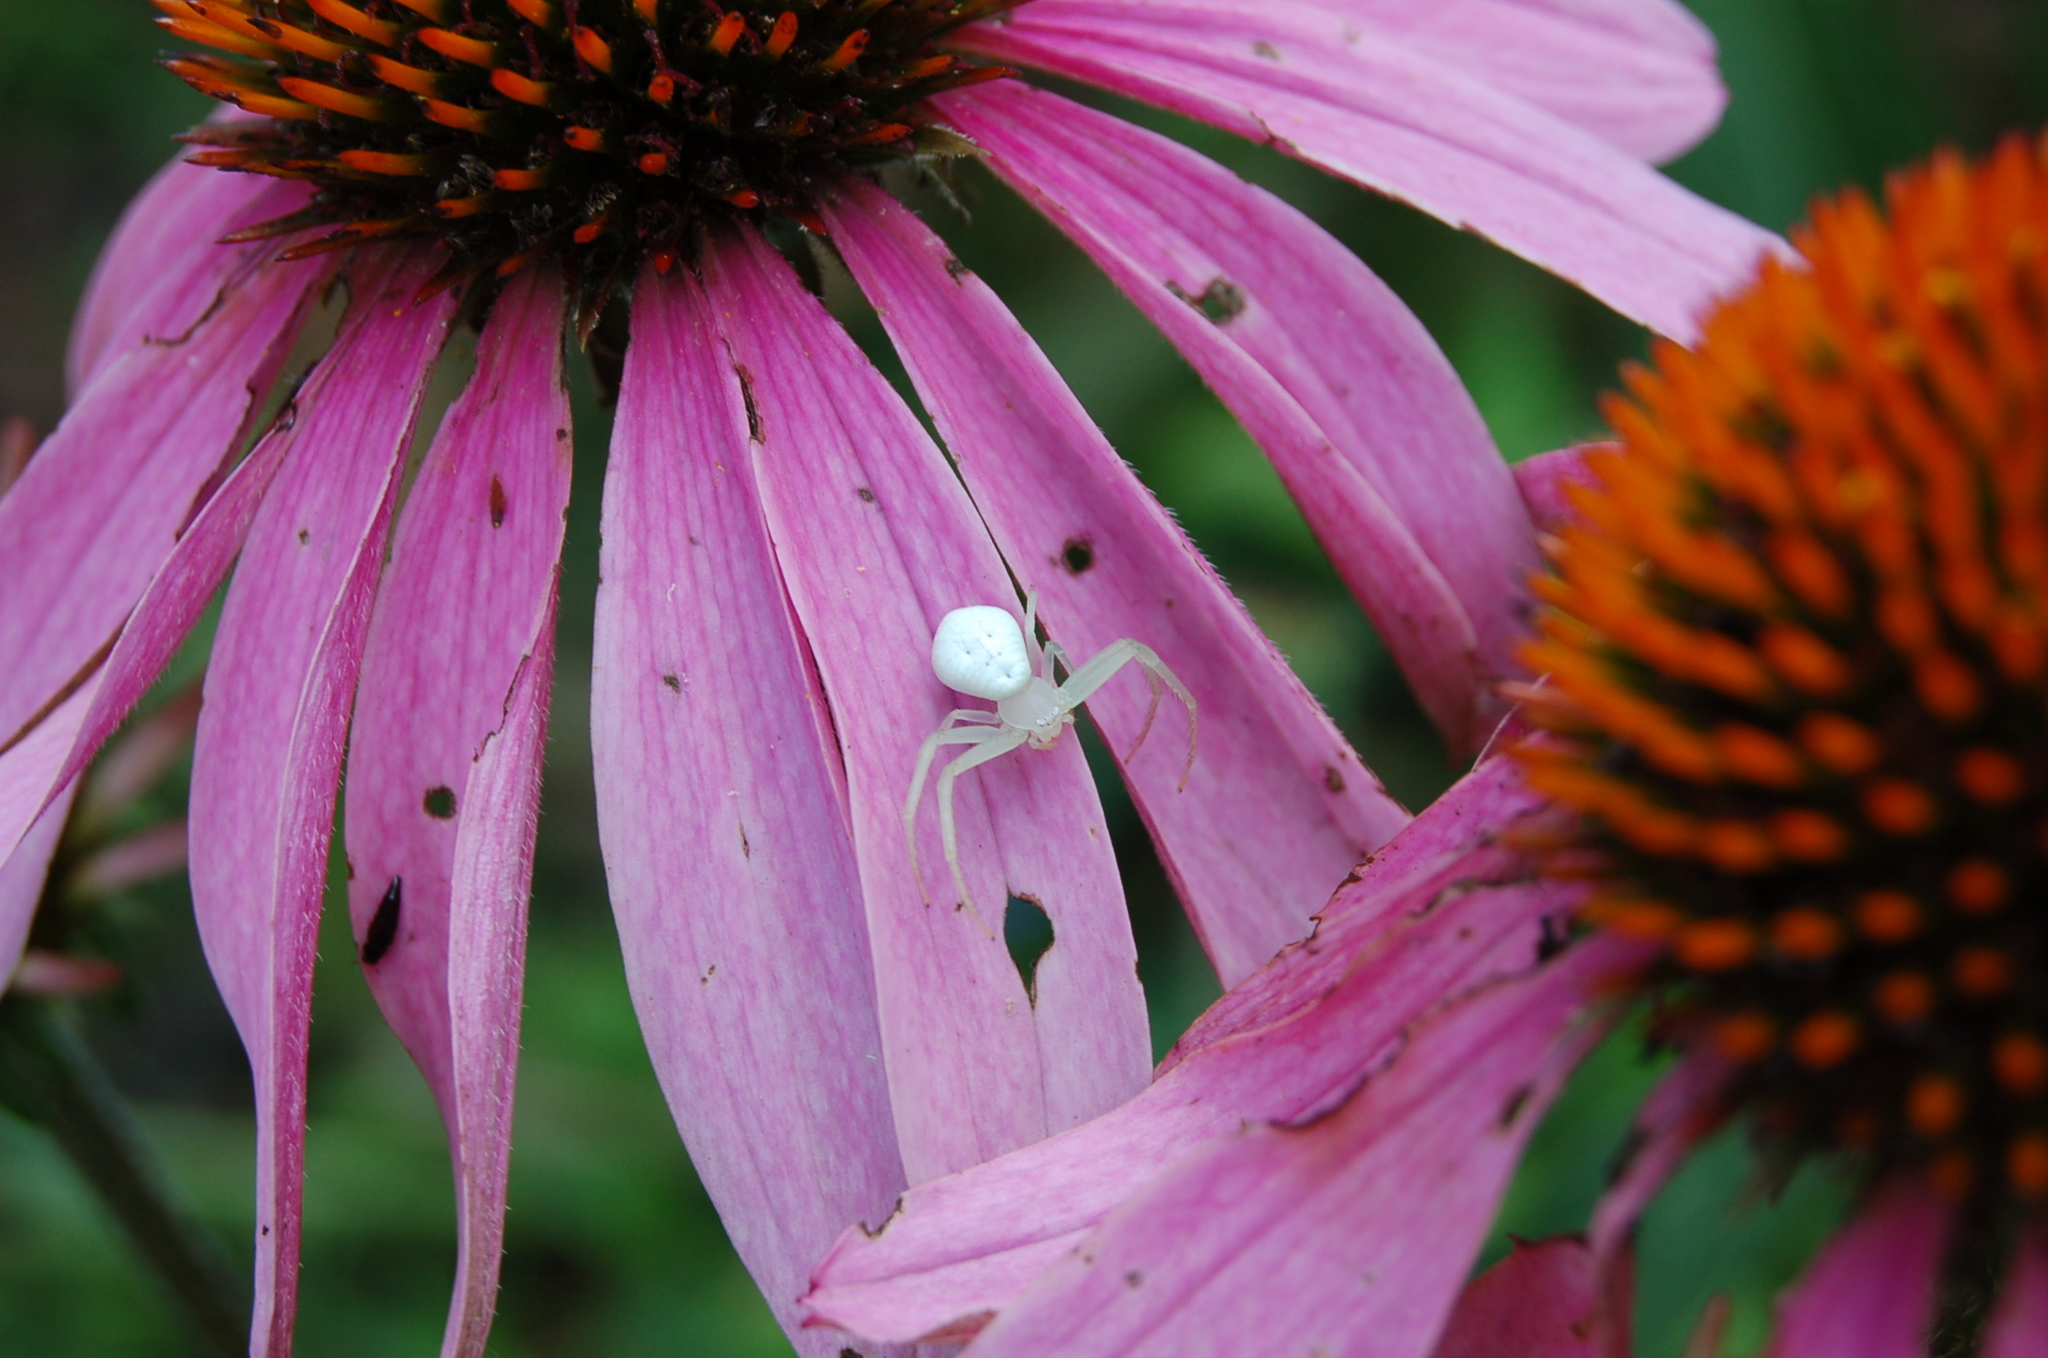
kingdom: Animalia
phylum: Arthropoda
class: Arachnida
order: Araneae
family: Thomisidae
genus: Misumessus
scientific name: Misumessus oblongus
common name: American green crab spider
